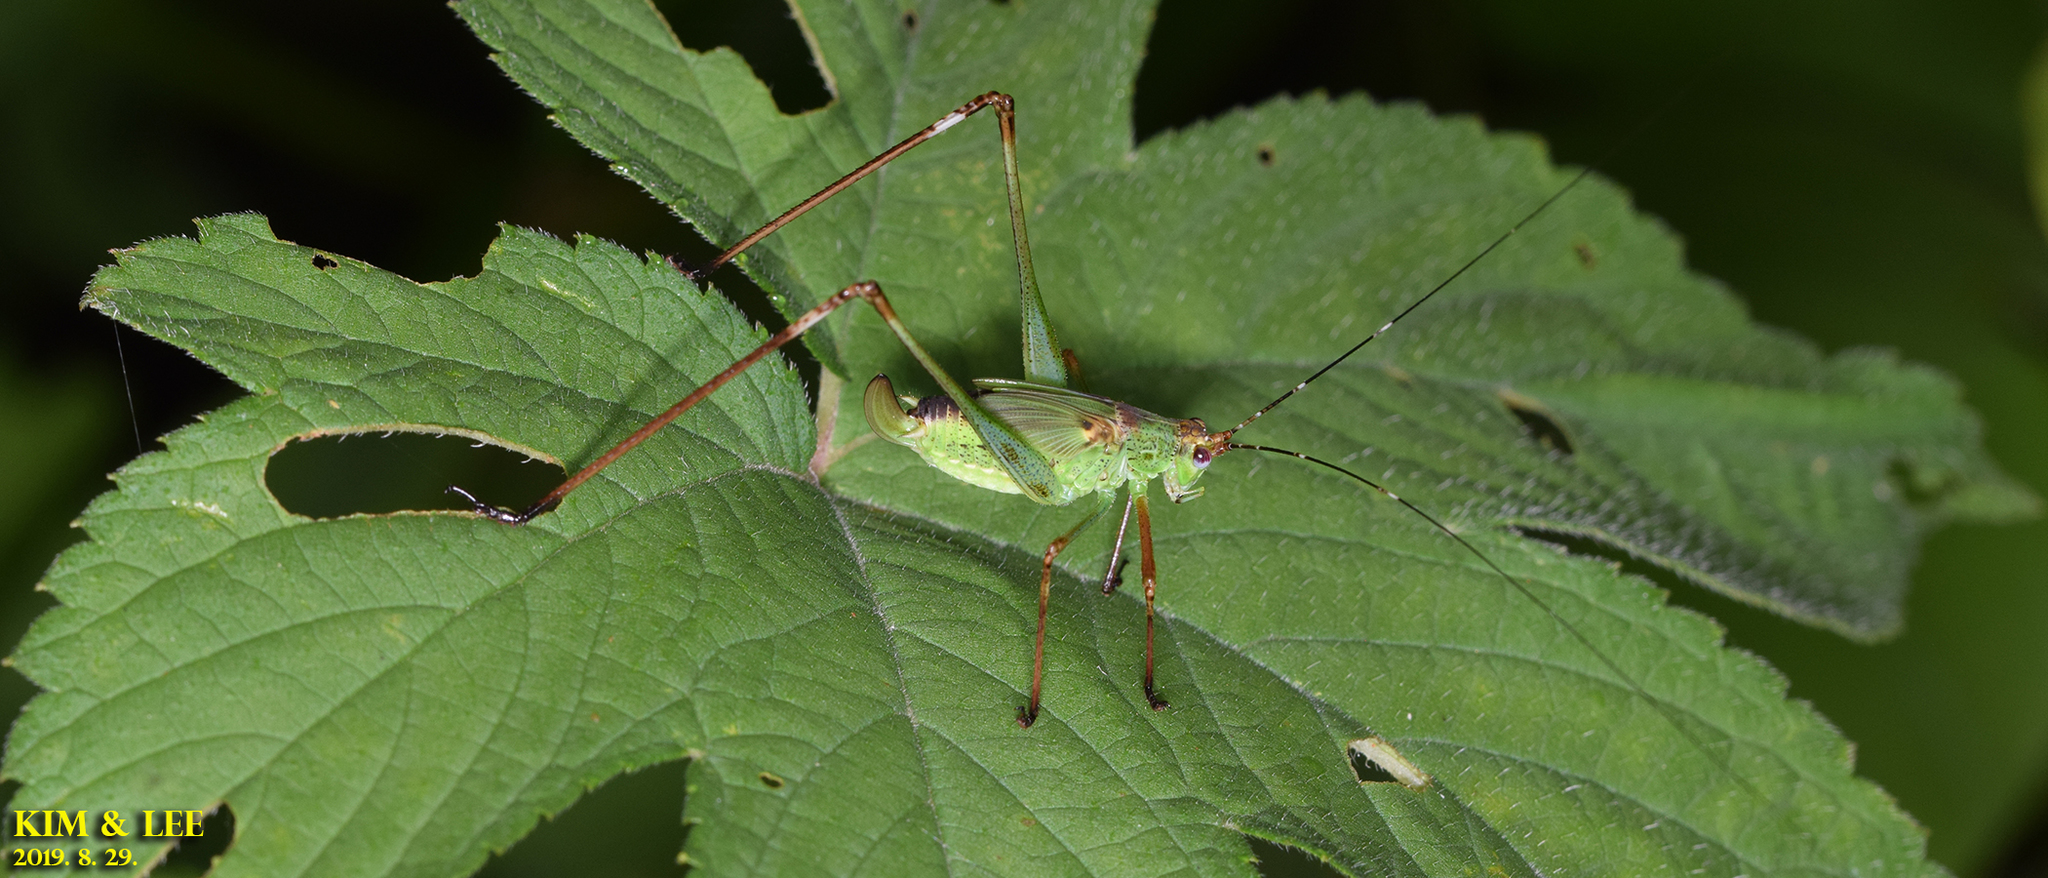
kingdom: Animalia
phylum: Arthropoda
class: Insecta
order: Orthoptera
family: Tettigoniidae
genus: Phaneroptera
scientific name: Phaneroptera nigroantennata
